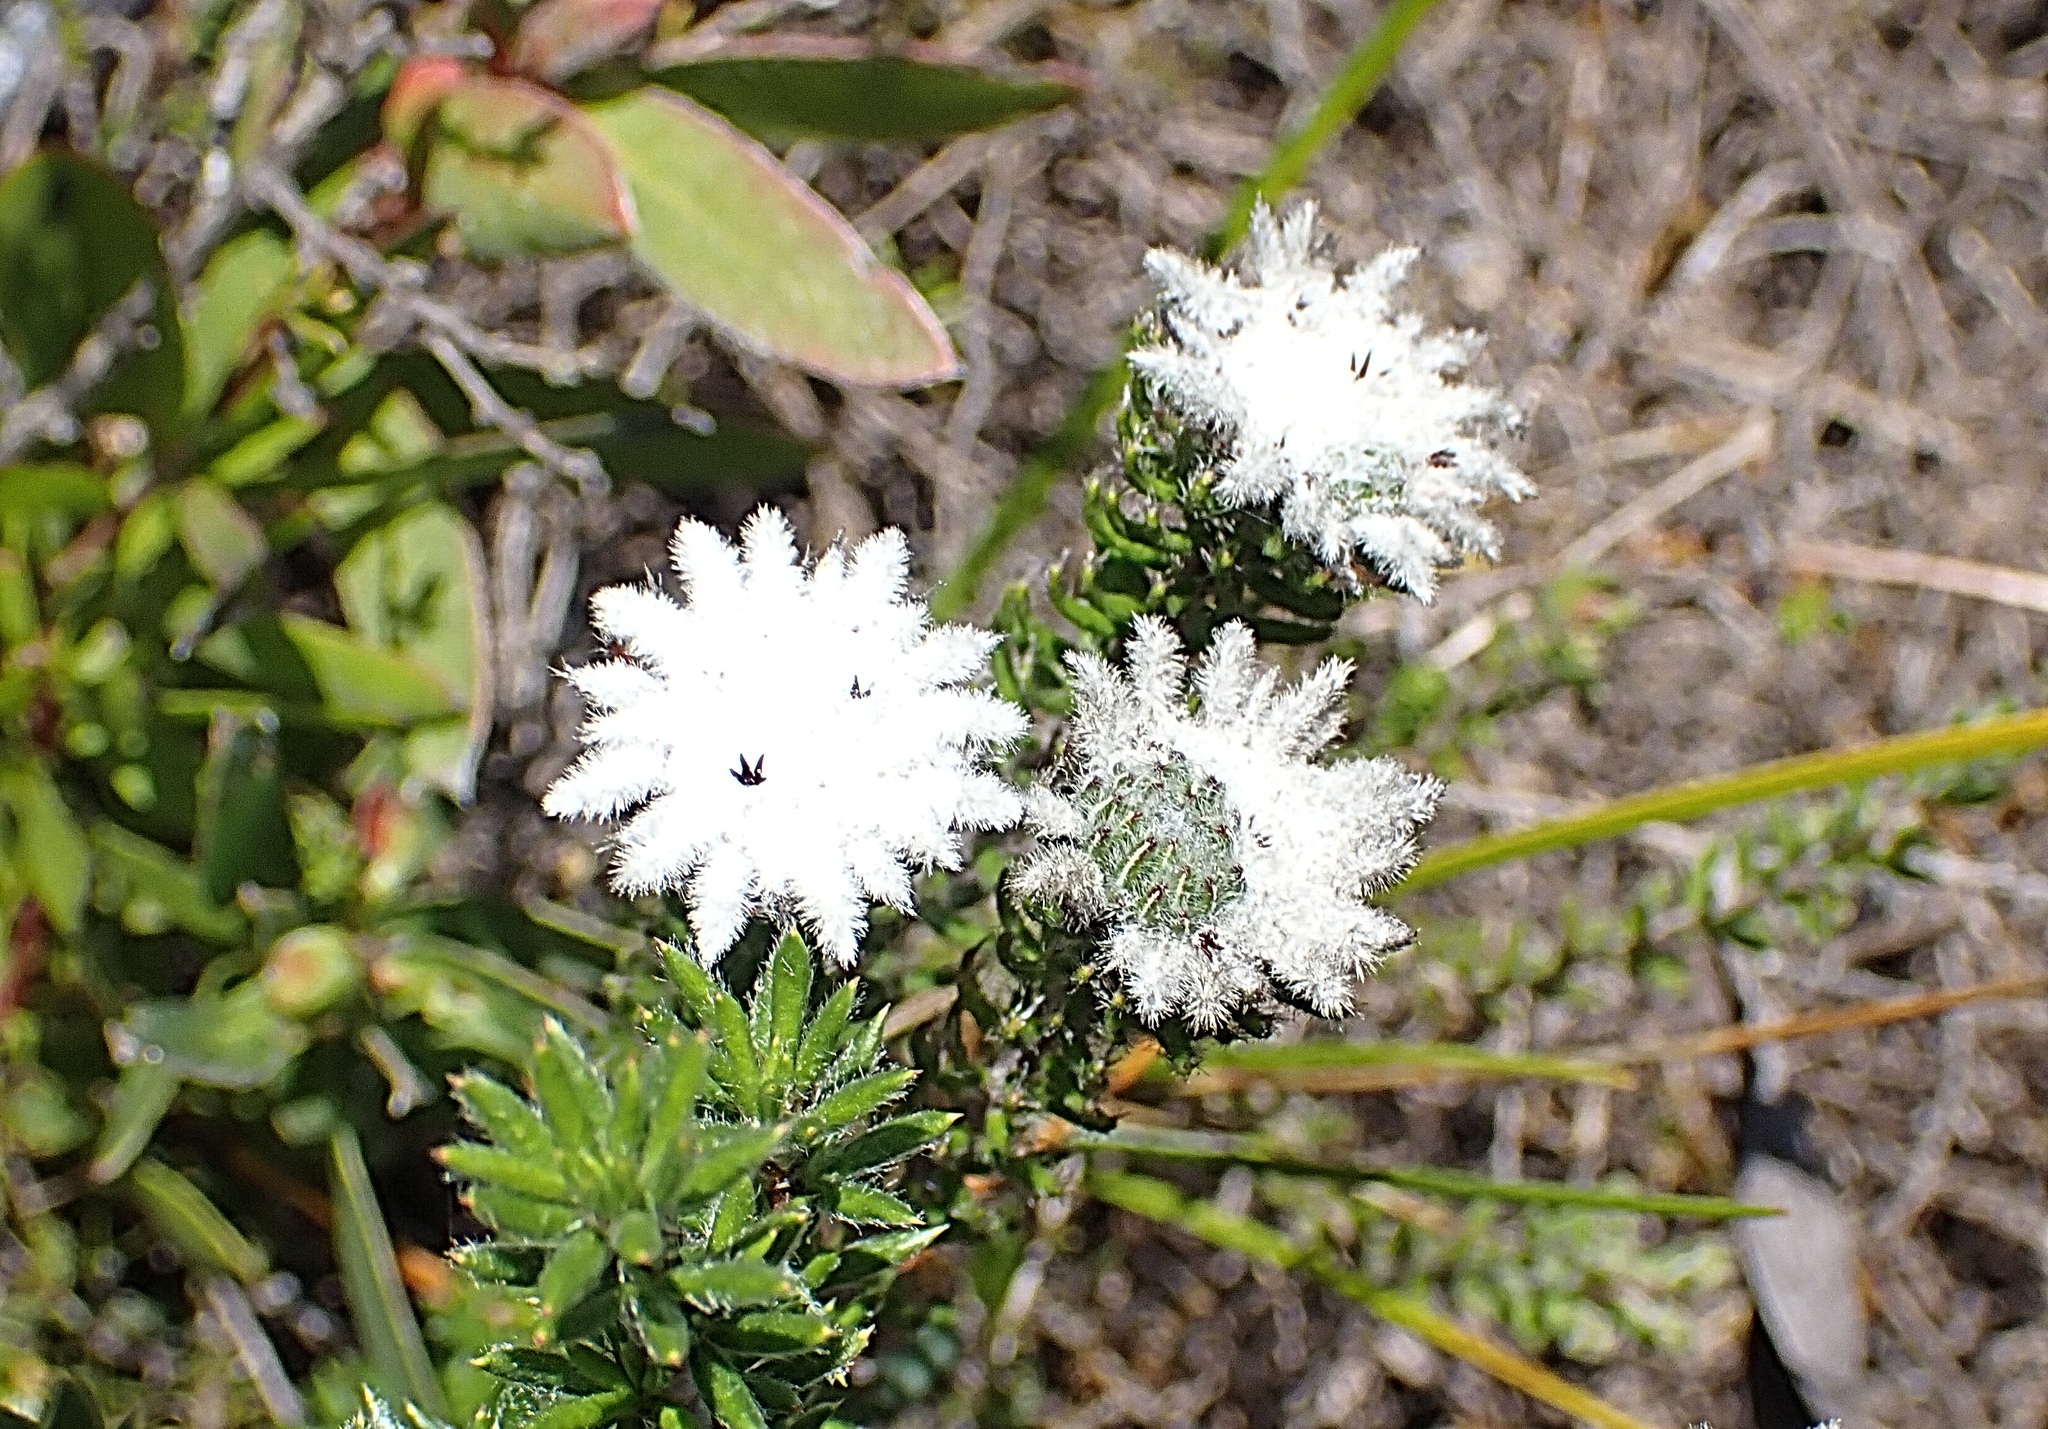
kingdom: Plantae
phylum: Tracheophyta
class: Magnoliopsida
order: Rosales
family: Rhamnaceae
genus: Phylica
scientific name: Phylica curvifolia
